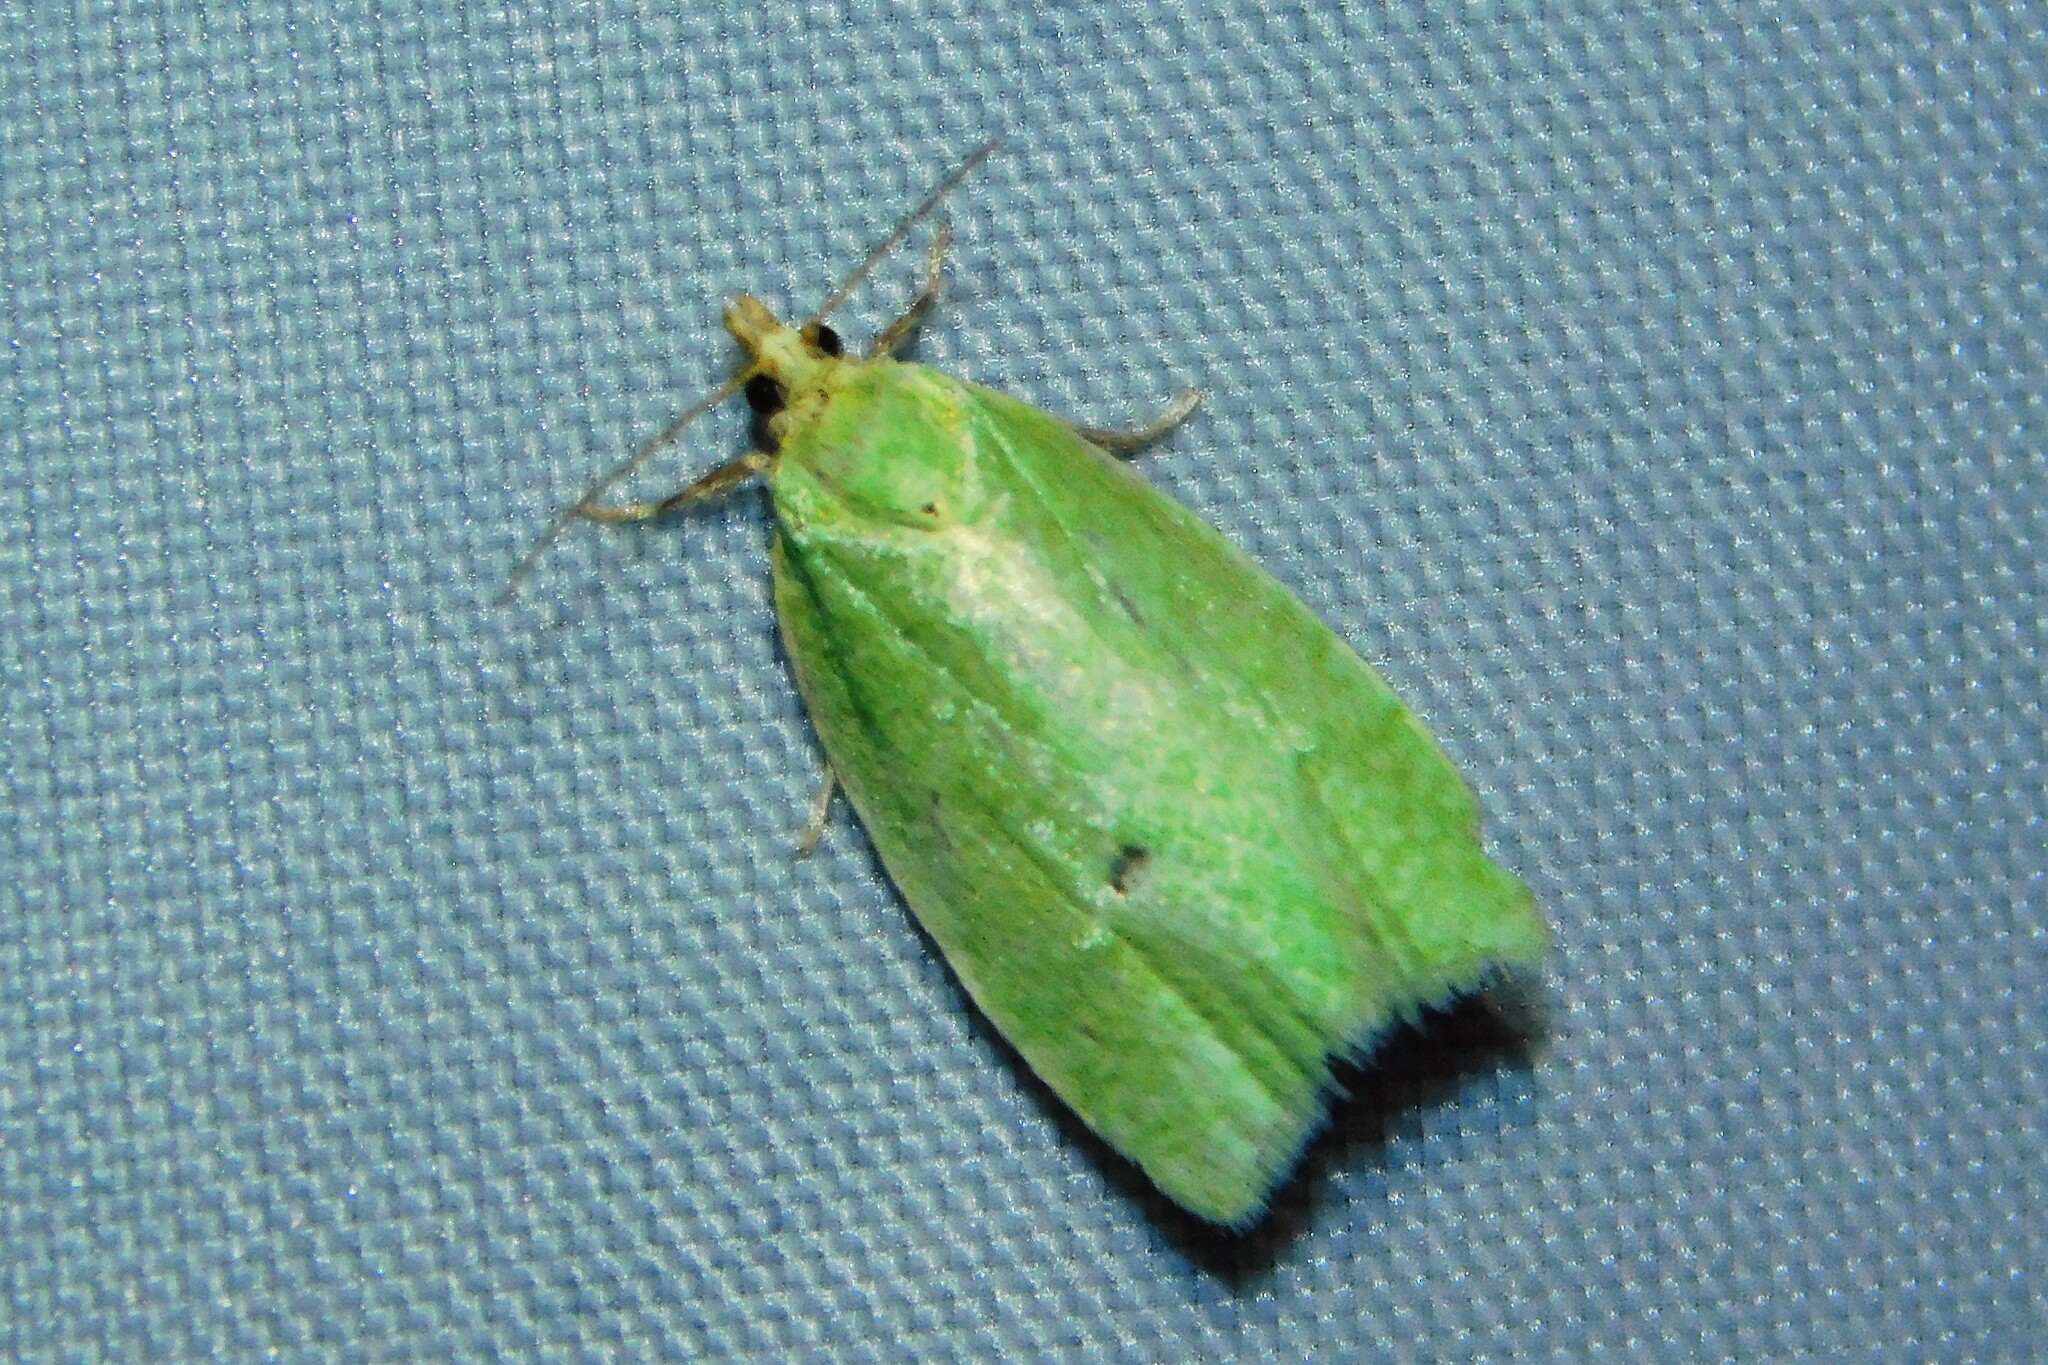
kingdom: Animalia
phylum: Arthropoda
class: Insecta
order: Lepidoptera
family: Tortricidae
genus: Tortrix
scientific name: Tortrix viridana
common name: Green oak tortrix
